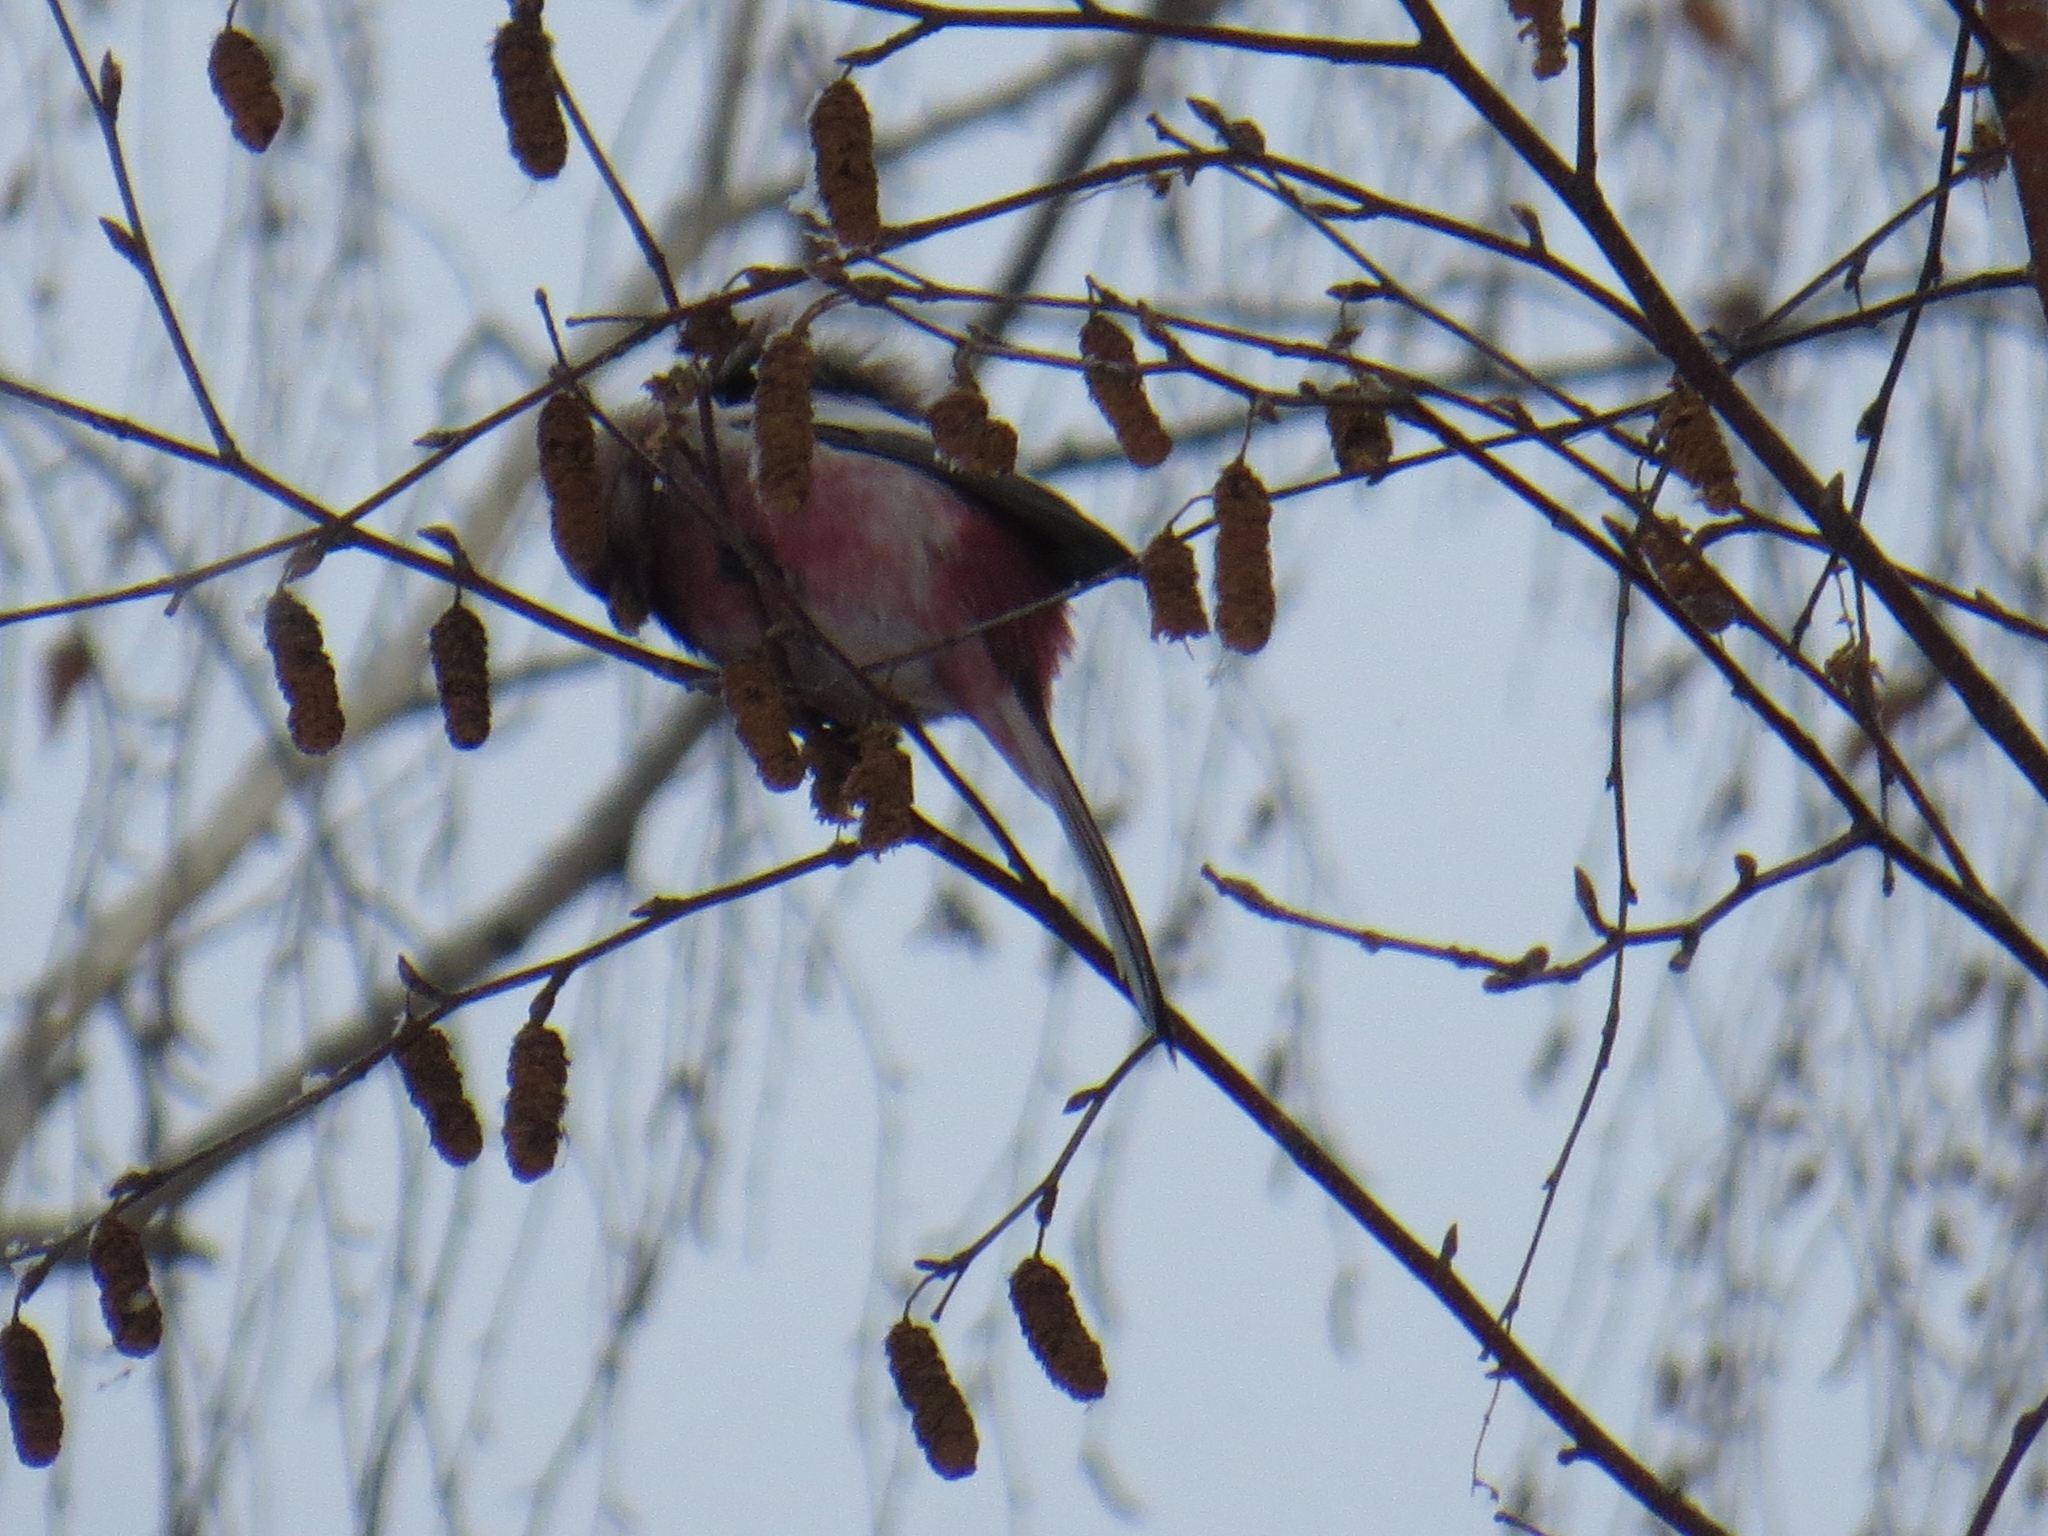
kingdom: Animalia
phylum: Chordata
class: Aves
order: Passeriformes
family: Fringillidae
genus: Carpodacus
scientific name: Carpodacus sibiricus
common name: Long-tailed rosefinch
